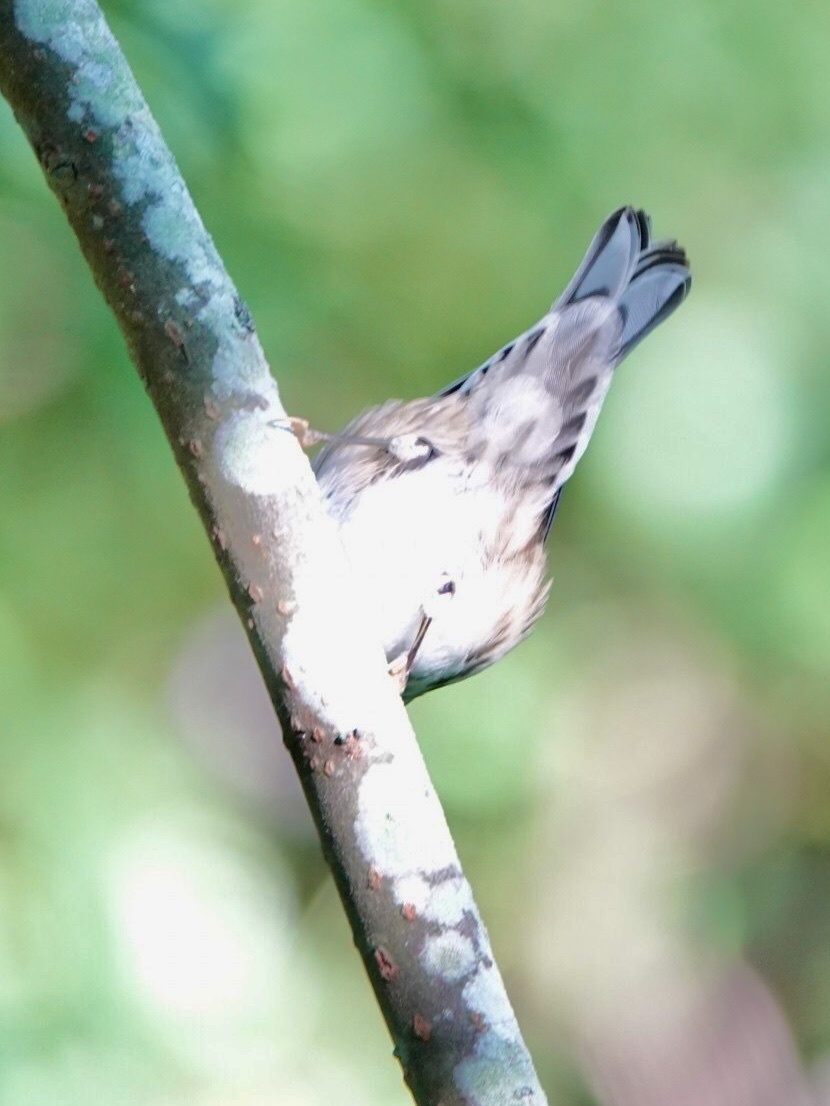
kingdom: Animalia
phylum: Chordata
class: Aves
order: Passeriformes
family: Parulidae
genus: Mniotilta
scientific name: Mniotilta varia
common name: Black-and-white warbler
